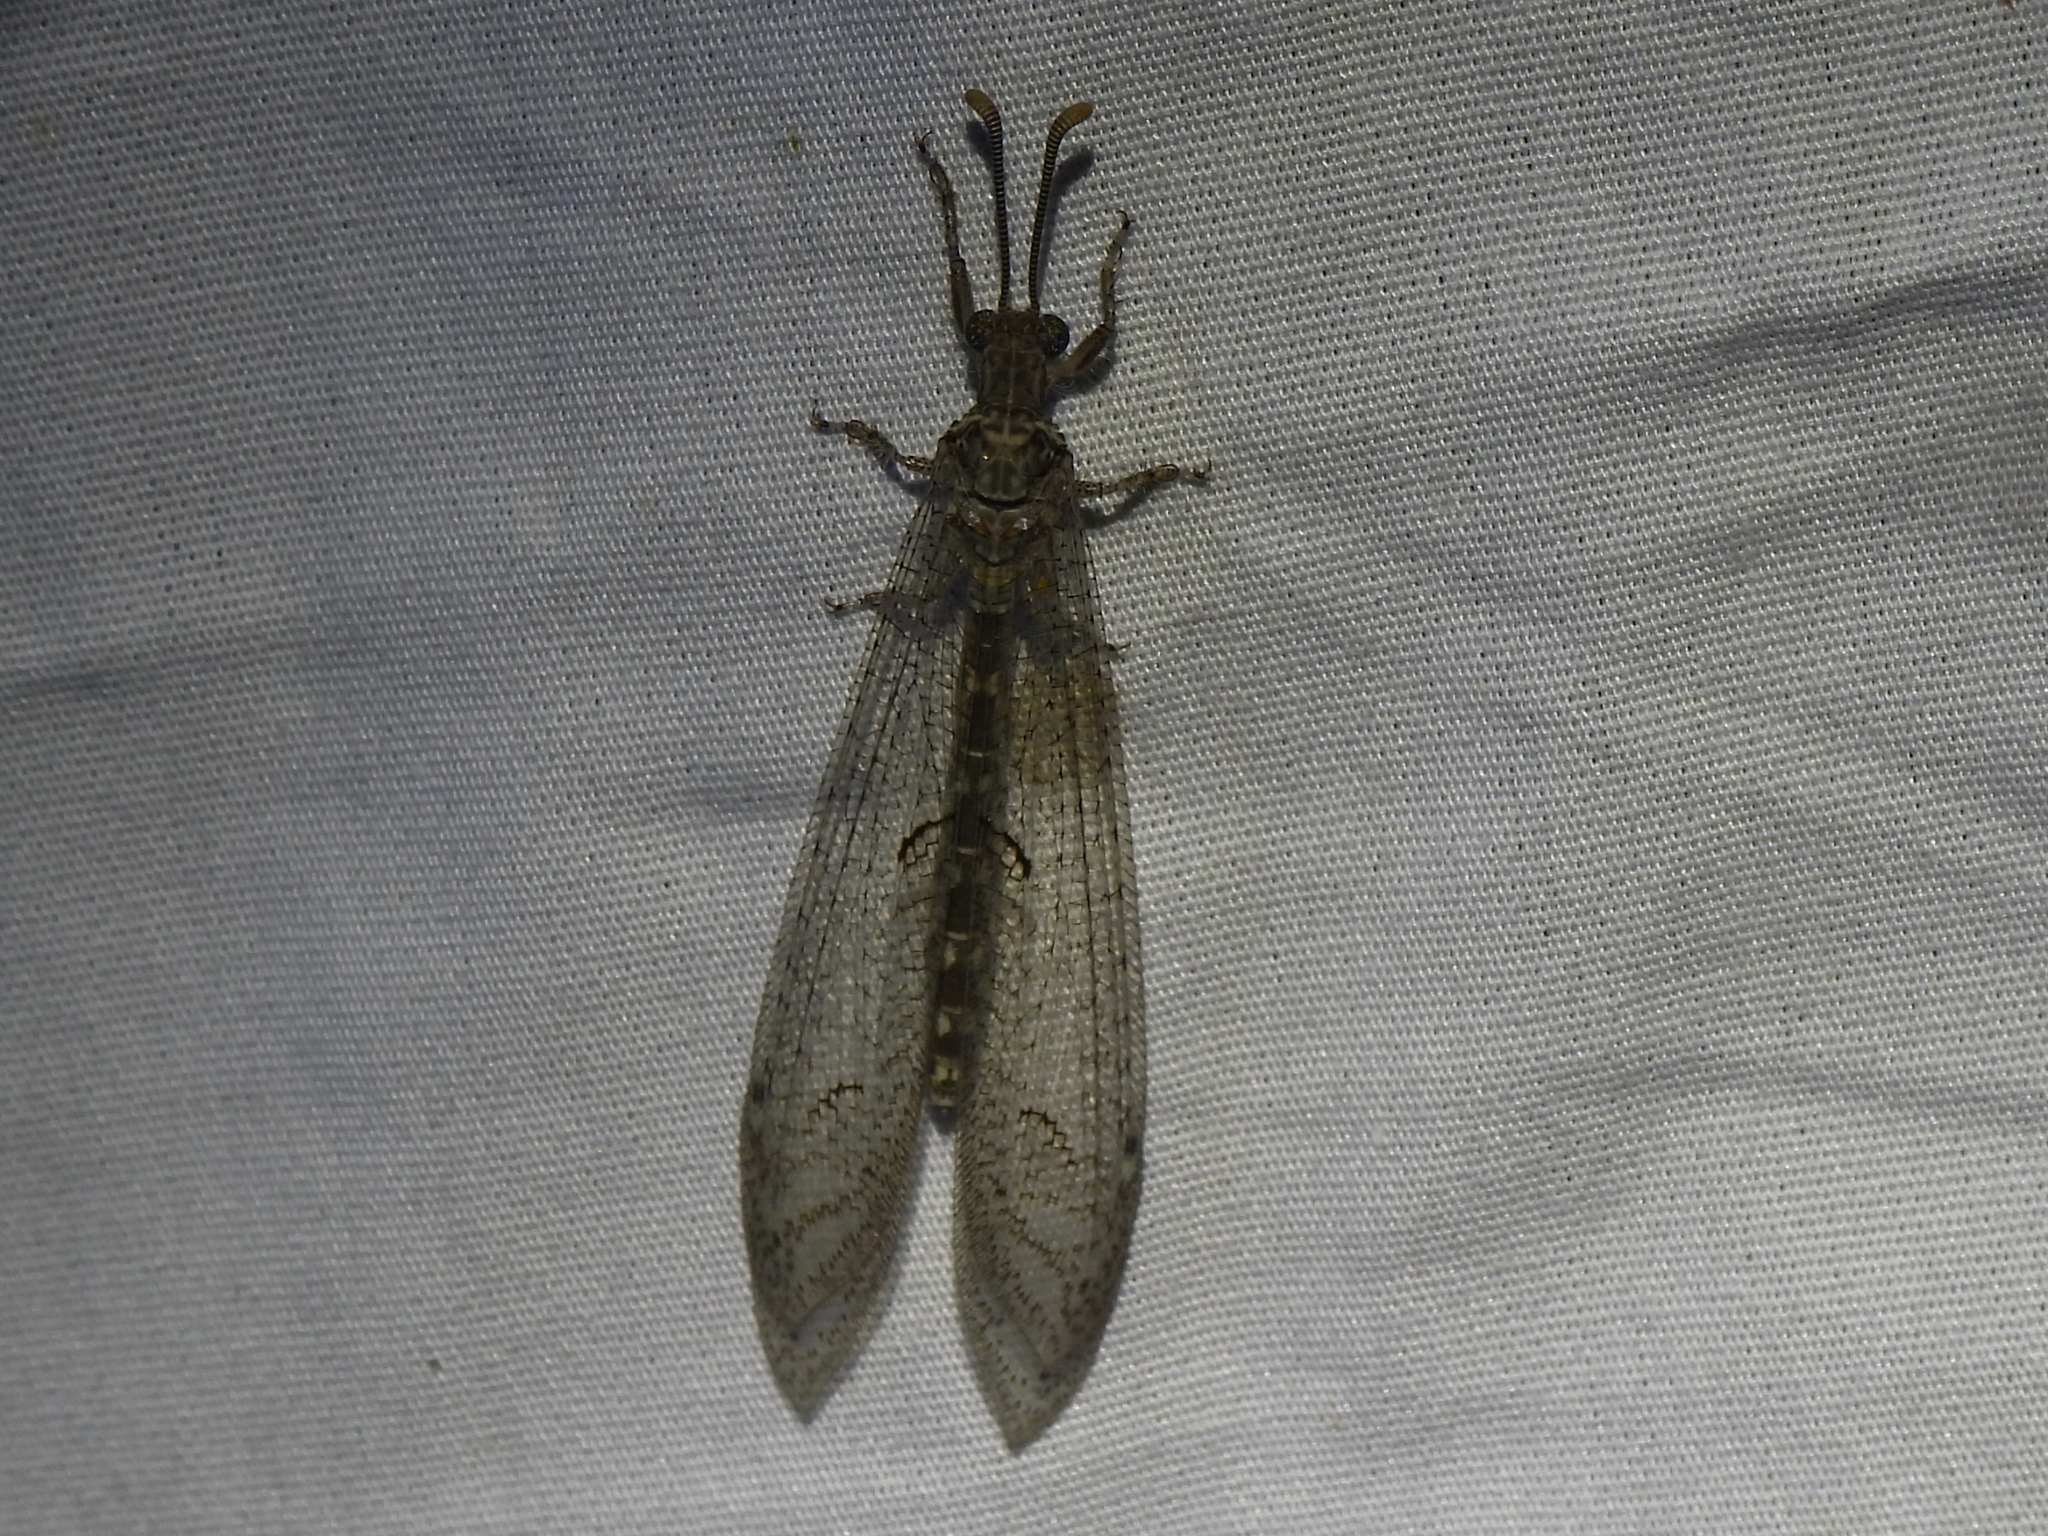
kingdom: Animalia
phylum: Arthropoda
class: Insecta
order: Neuroptera
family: Myrmeleontidae
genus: Euptilon
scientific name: Euptilon ornatum
